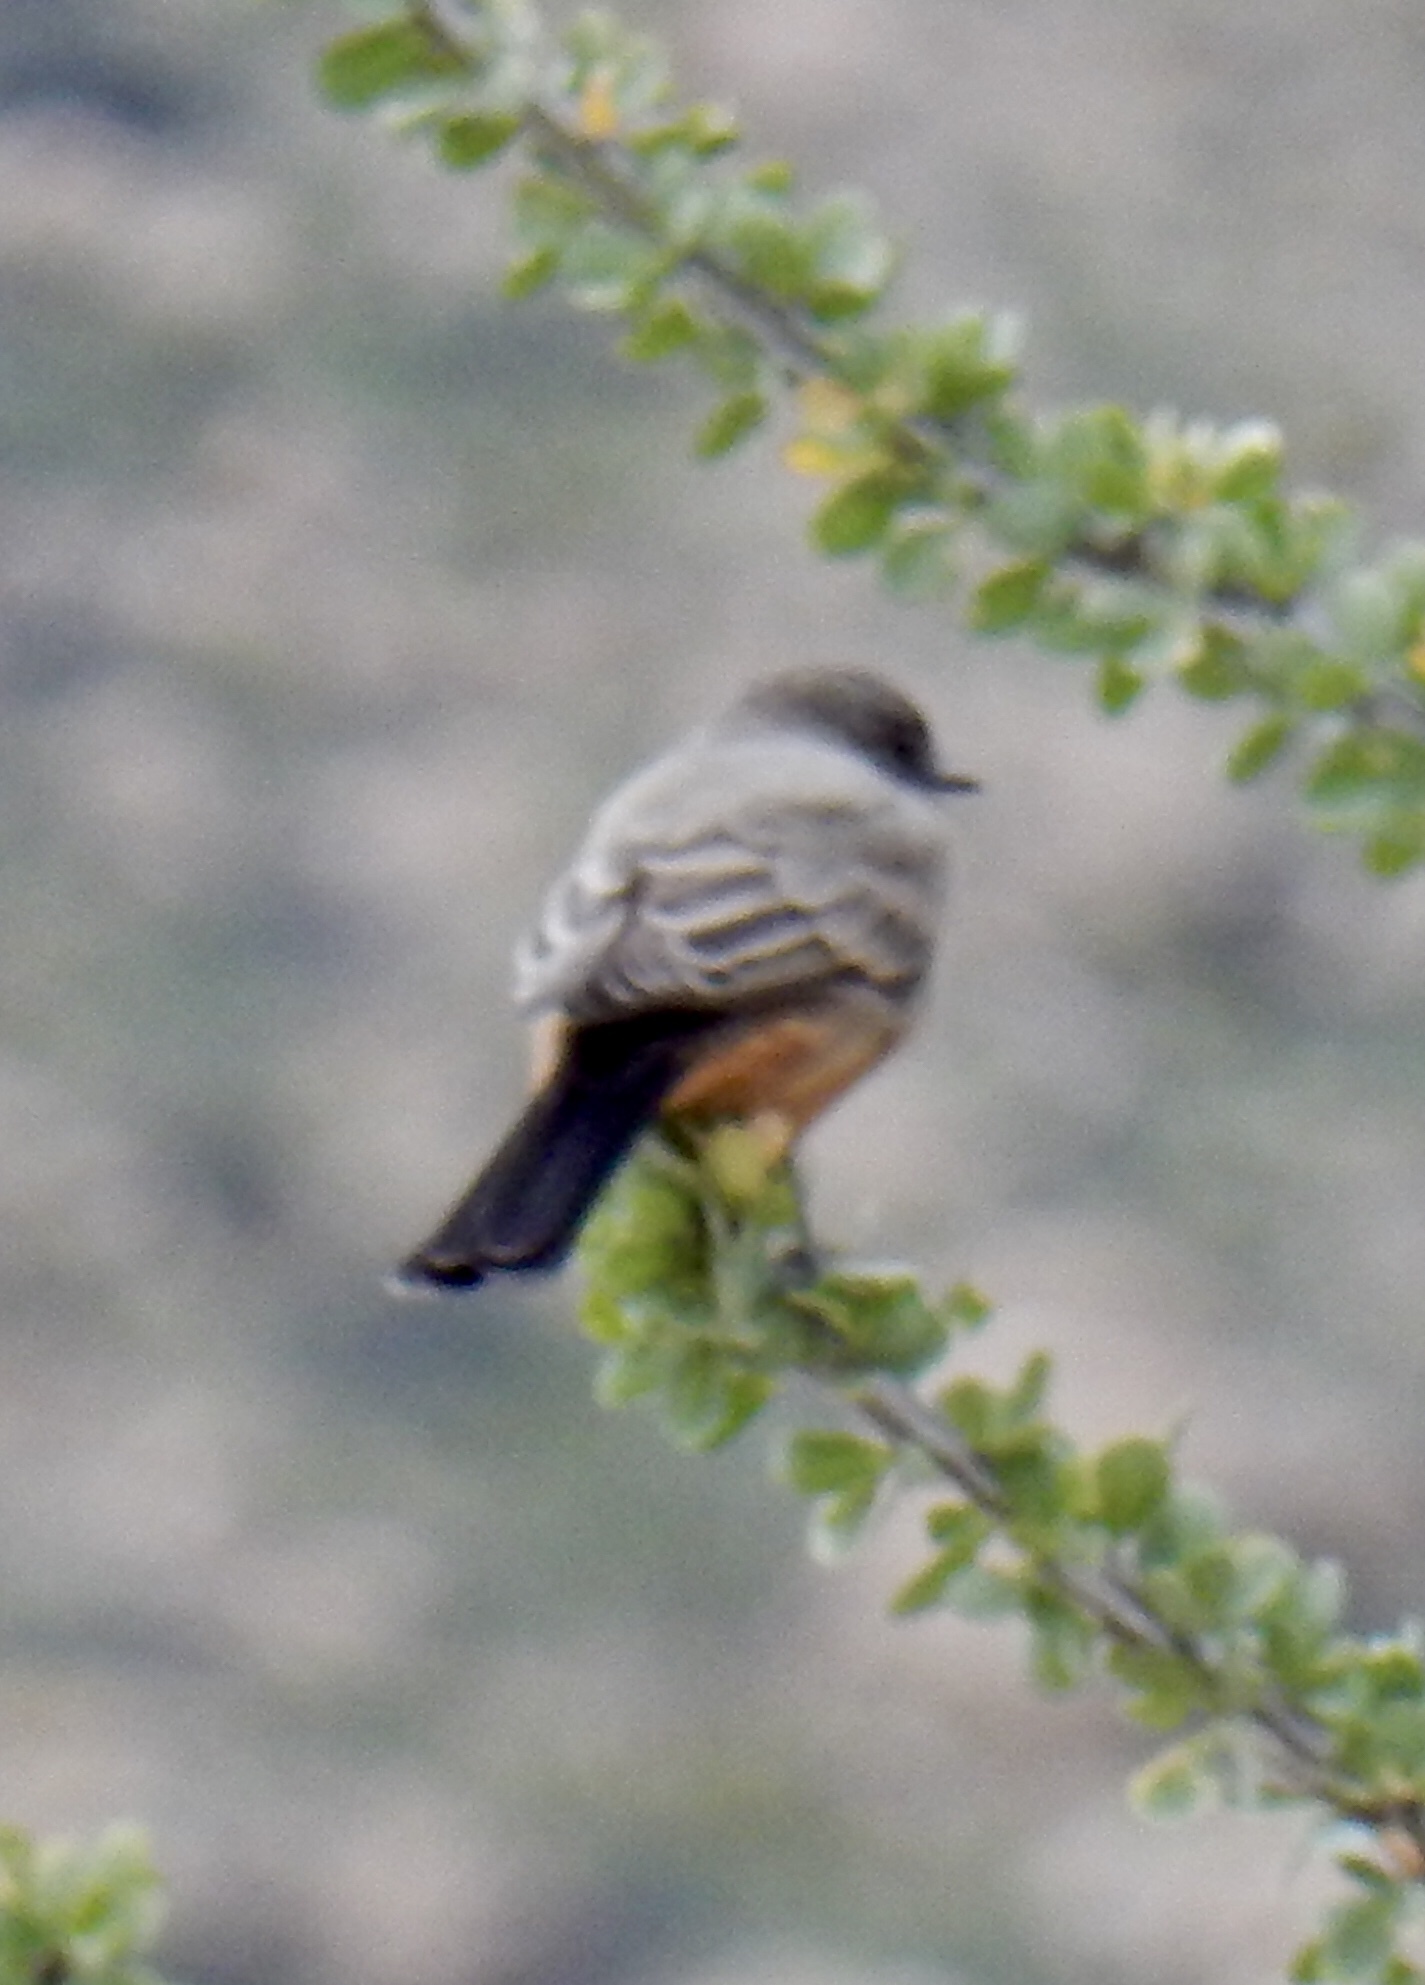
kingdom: Animalia
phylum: Chordata
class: Aves
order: Passeriformes
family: Tyrannidae
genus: Sayornis
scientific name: Sayornis saya
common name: Say's phoebe
